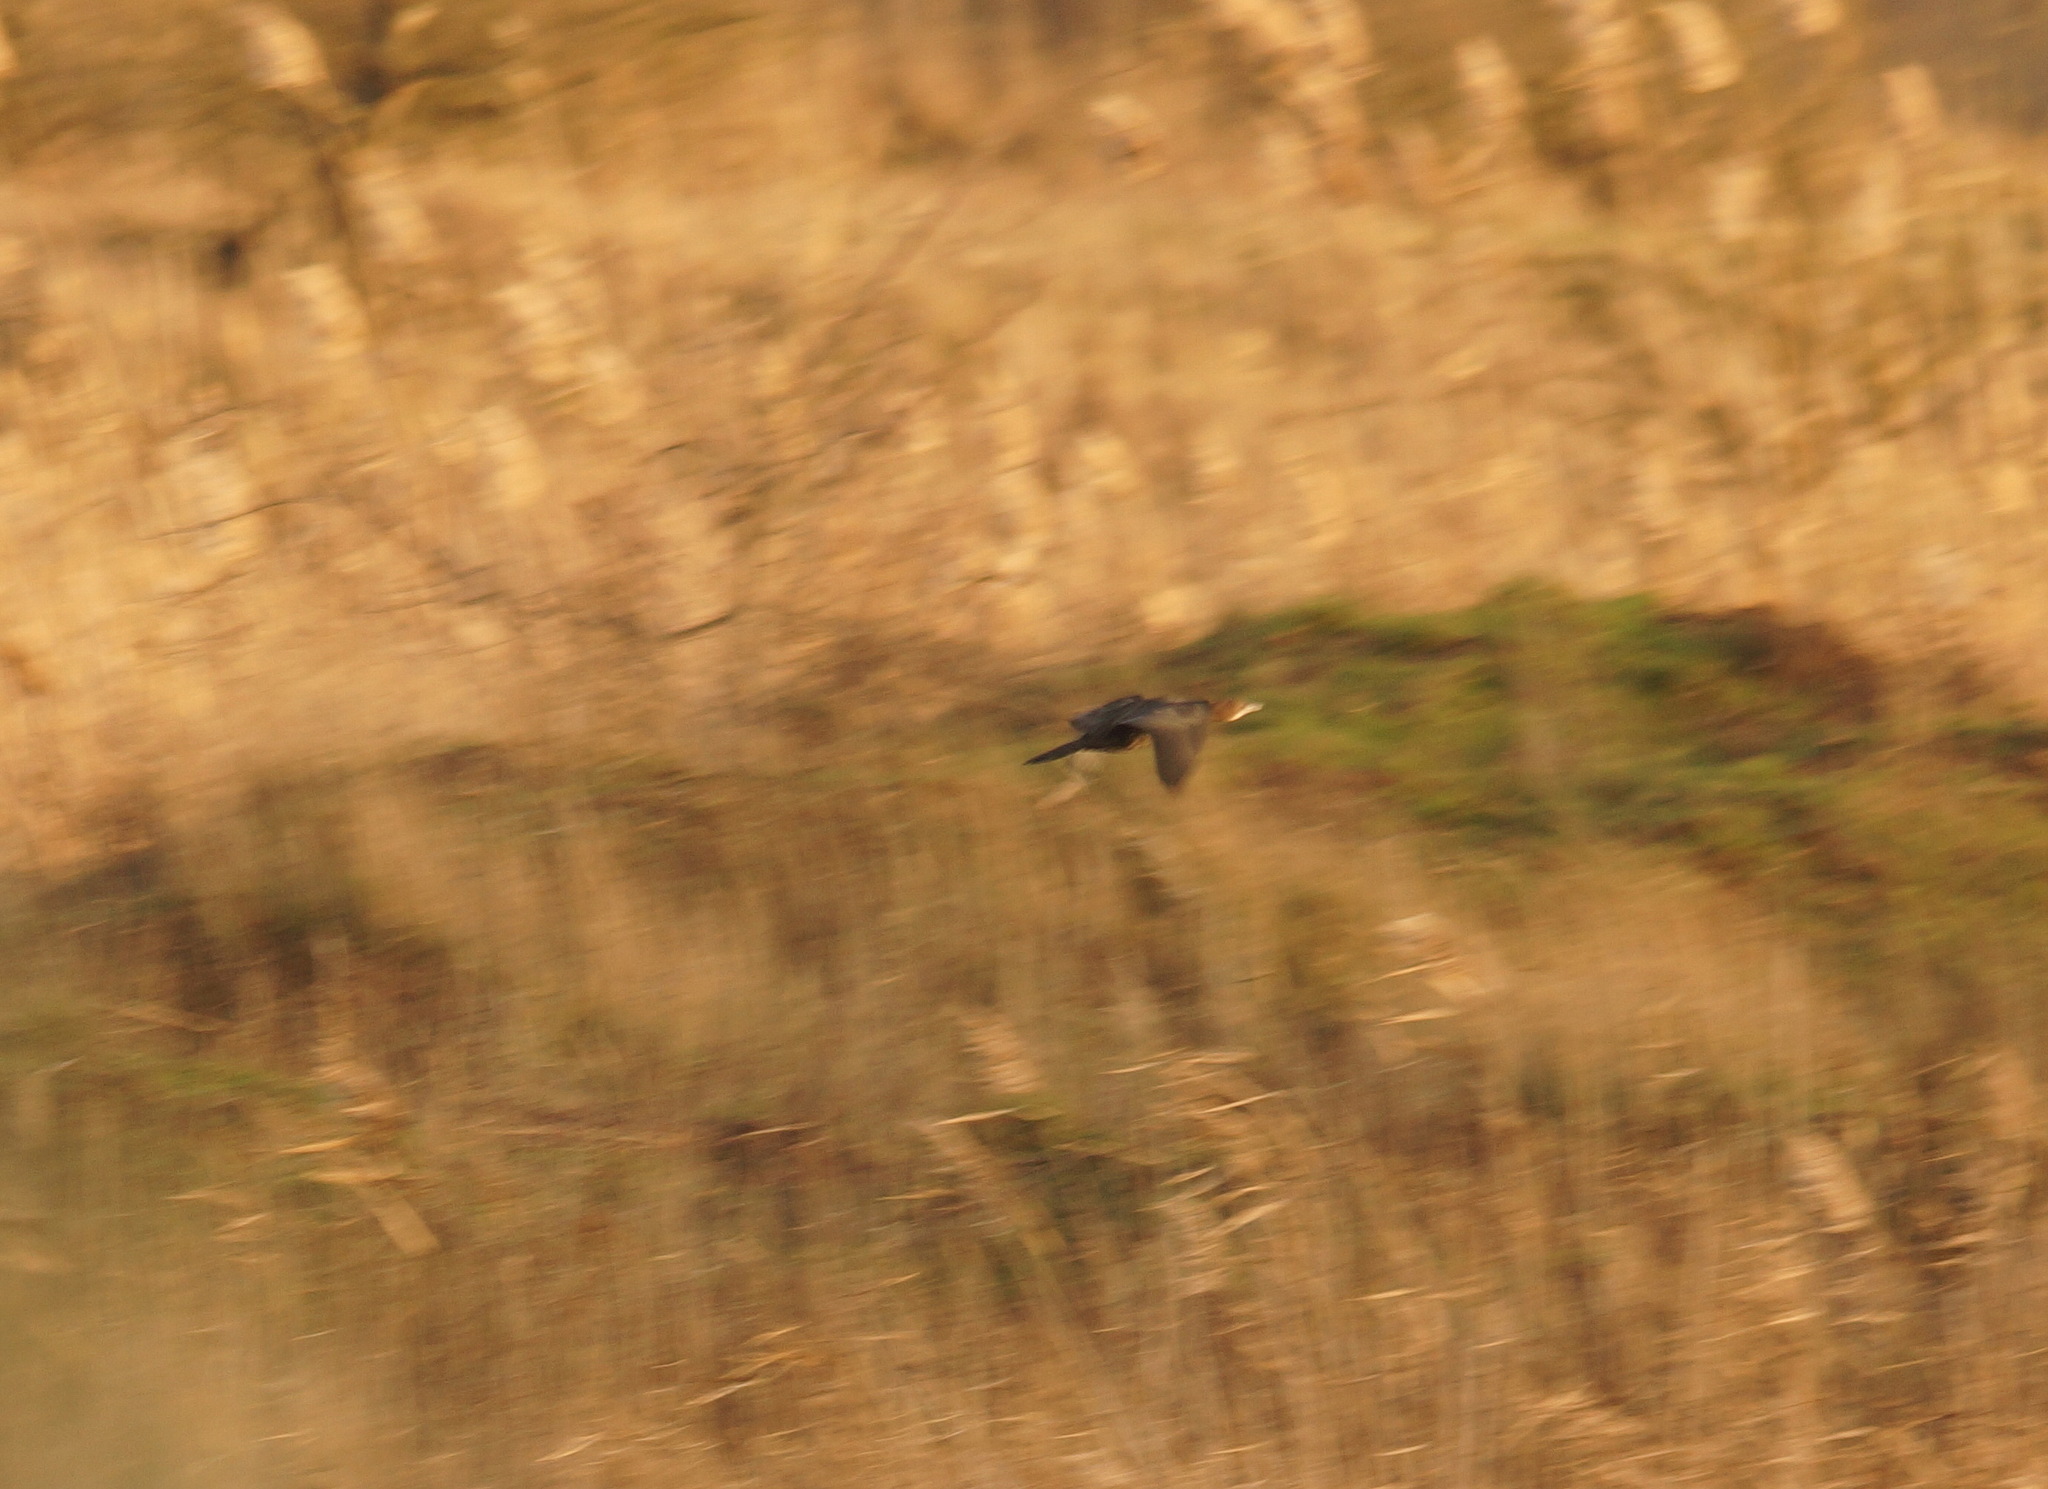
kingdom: Animalia
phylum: Chordata
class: Aves
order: Suliformes
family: Phalacrocoracidae
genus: Microcarbo
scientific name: Microcarbo pygmaeus
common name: Pygmy cormorant
